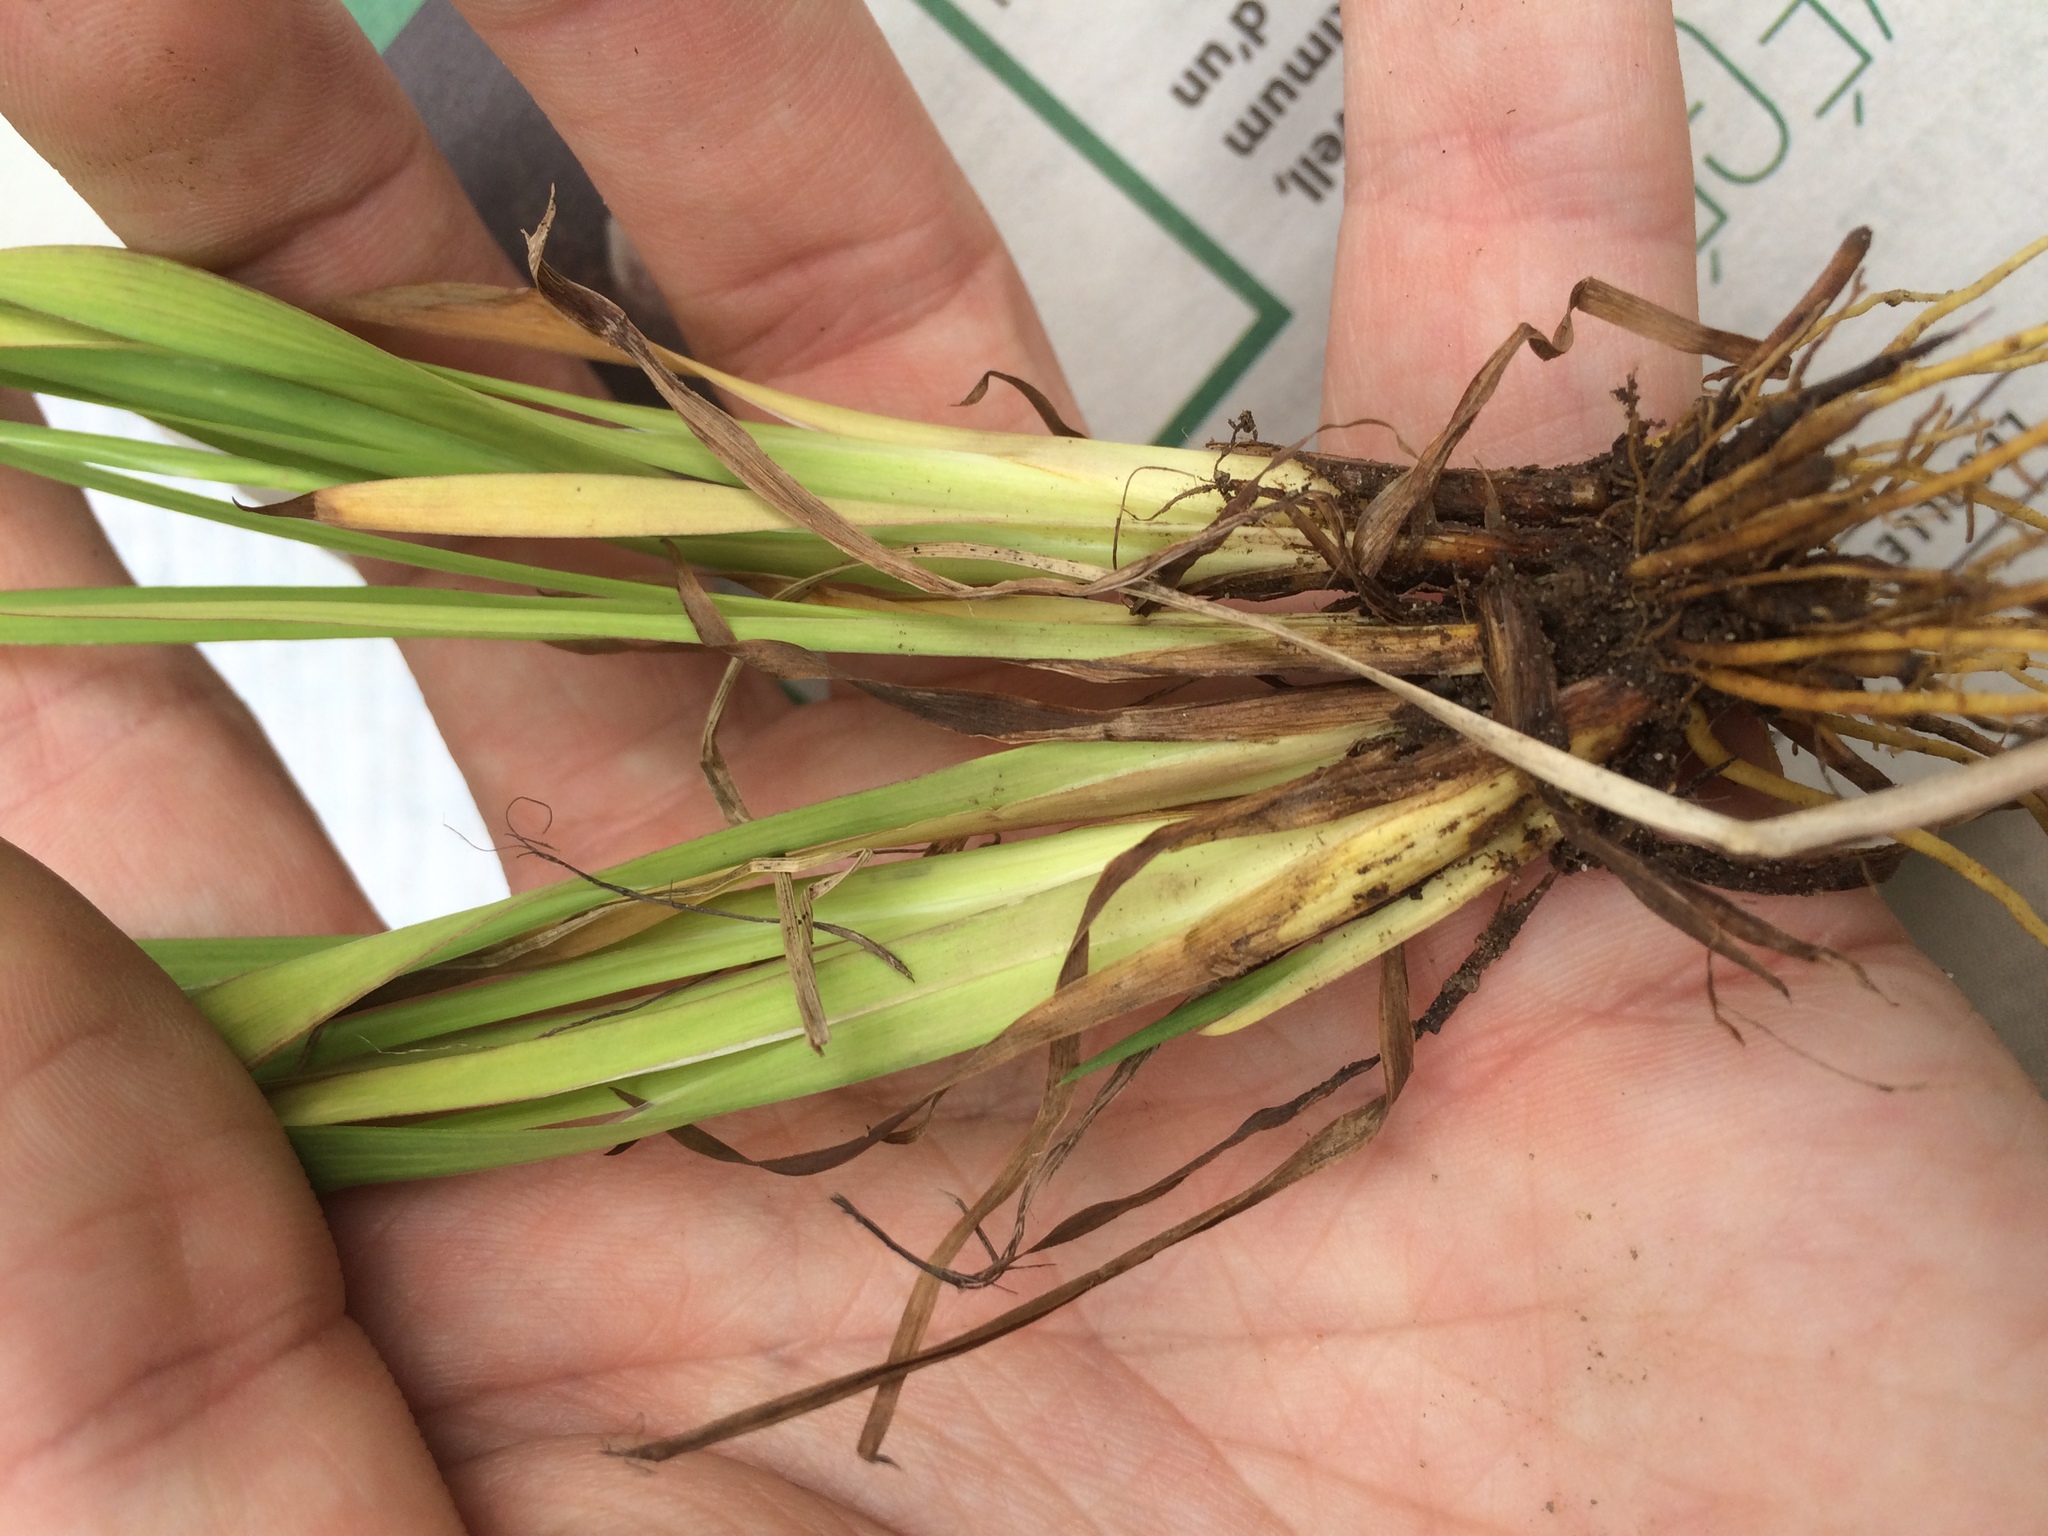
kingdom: Plantae
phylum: Tracheophyta
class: Liliopsida
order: Asparagales
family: Iridaceae
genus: Sisyrinchium
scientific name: Sisyrinchium montanum
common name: American blue-eyed-grass
